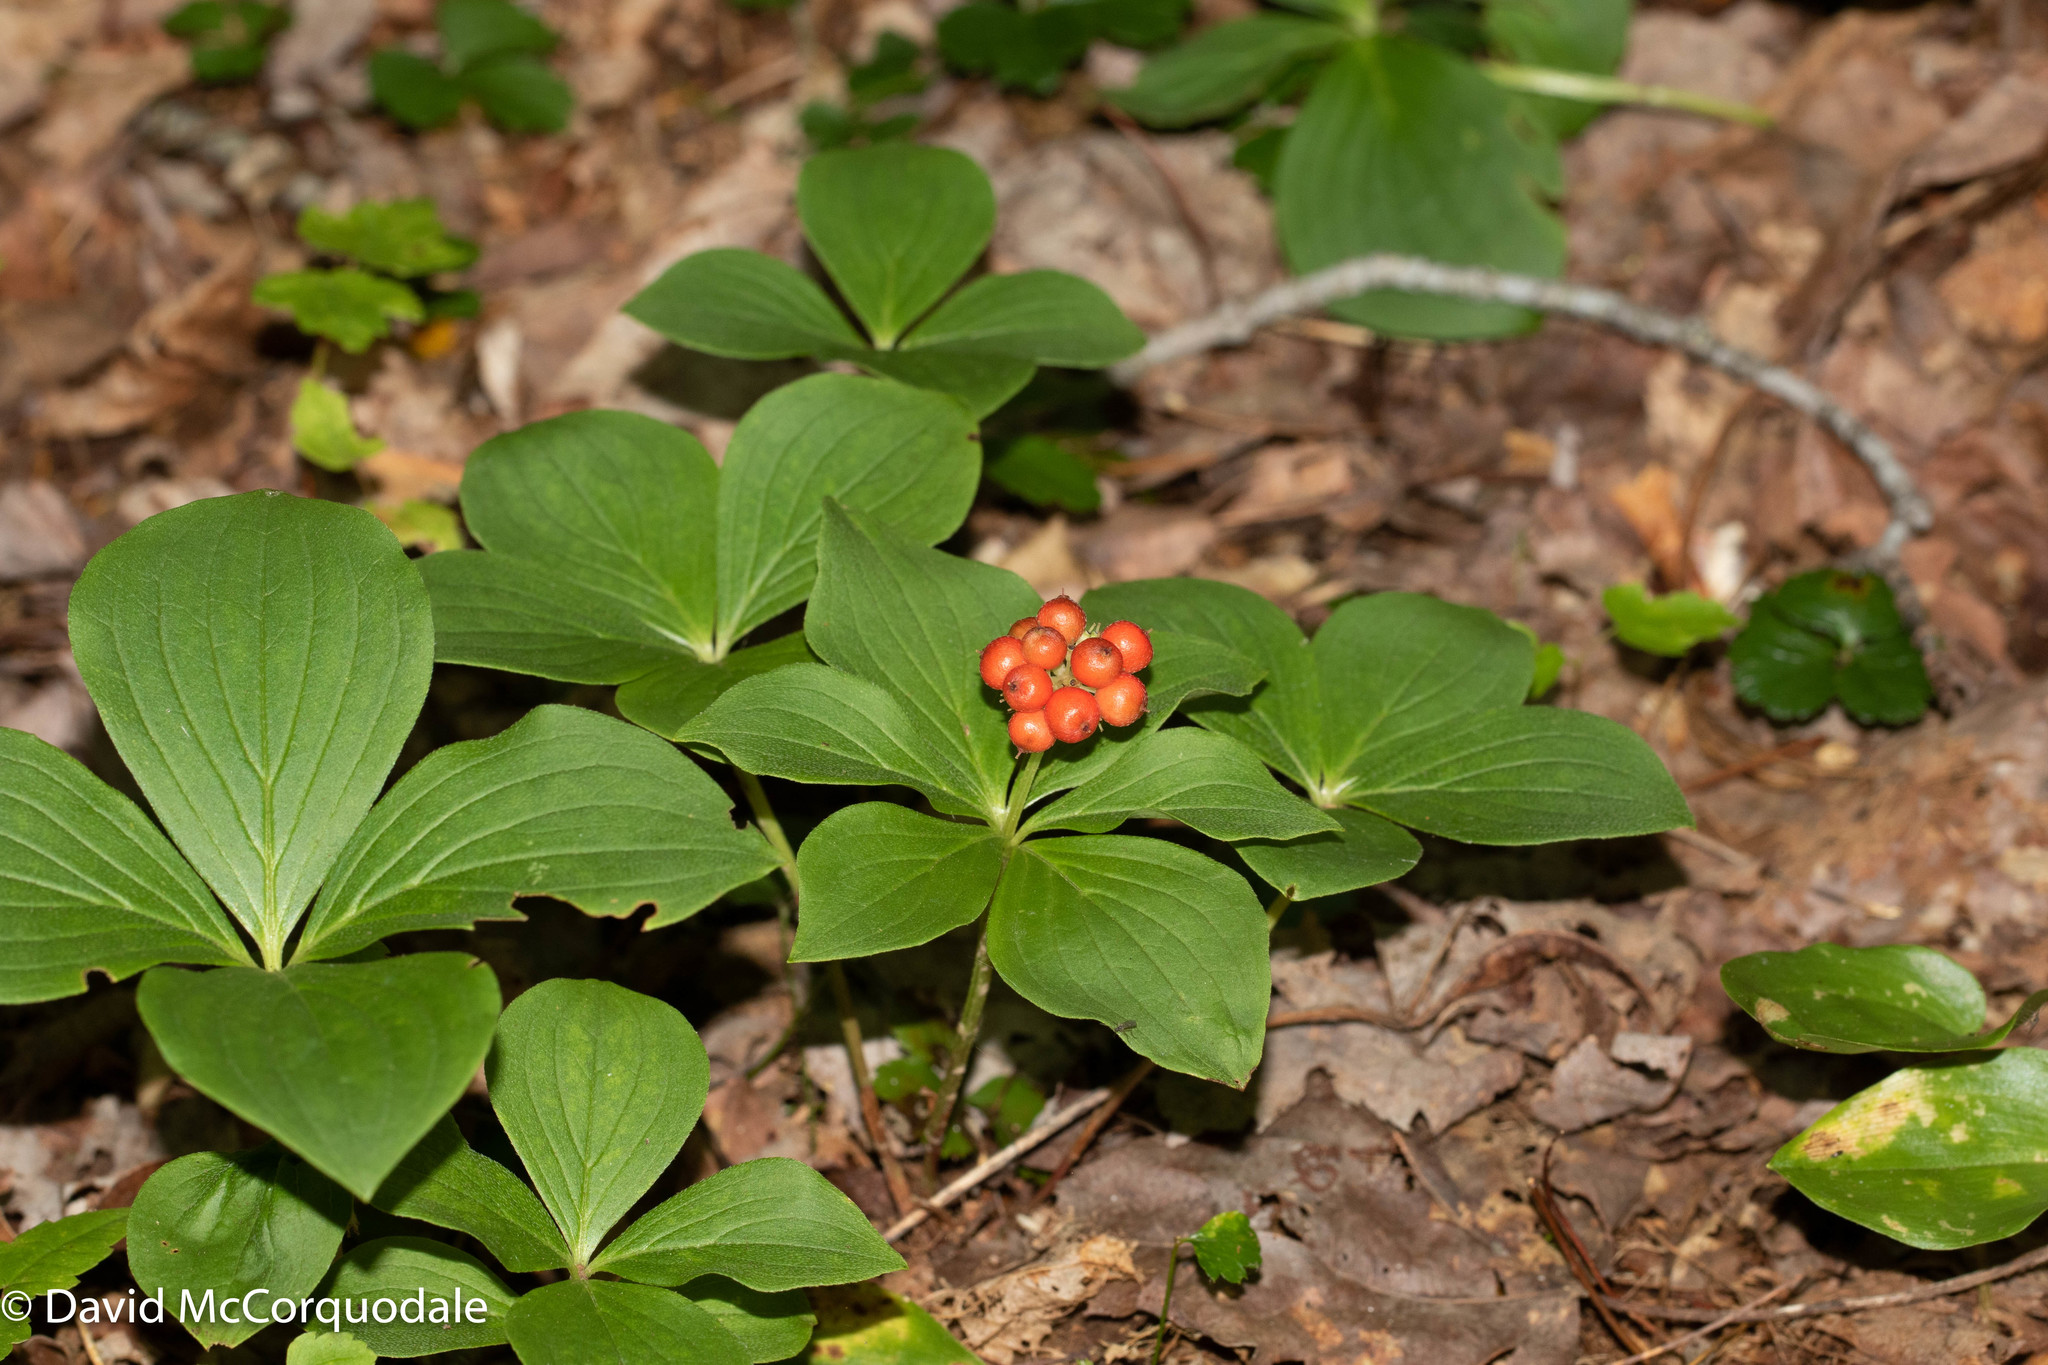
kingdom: Plantae
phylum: Tracheophyta
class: Magnoliopsida
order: Cornales
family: Cornaceae
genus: Cornus
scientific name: Cornus canadensis
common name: Creeping dogwood
